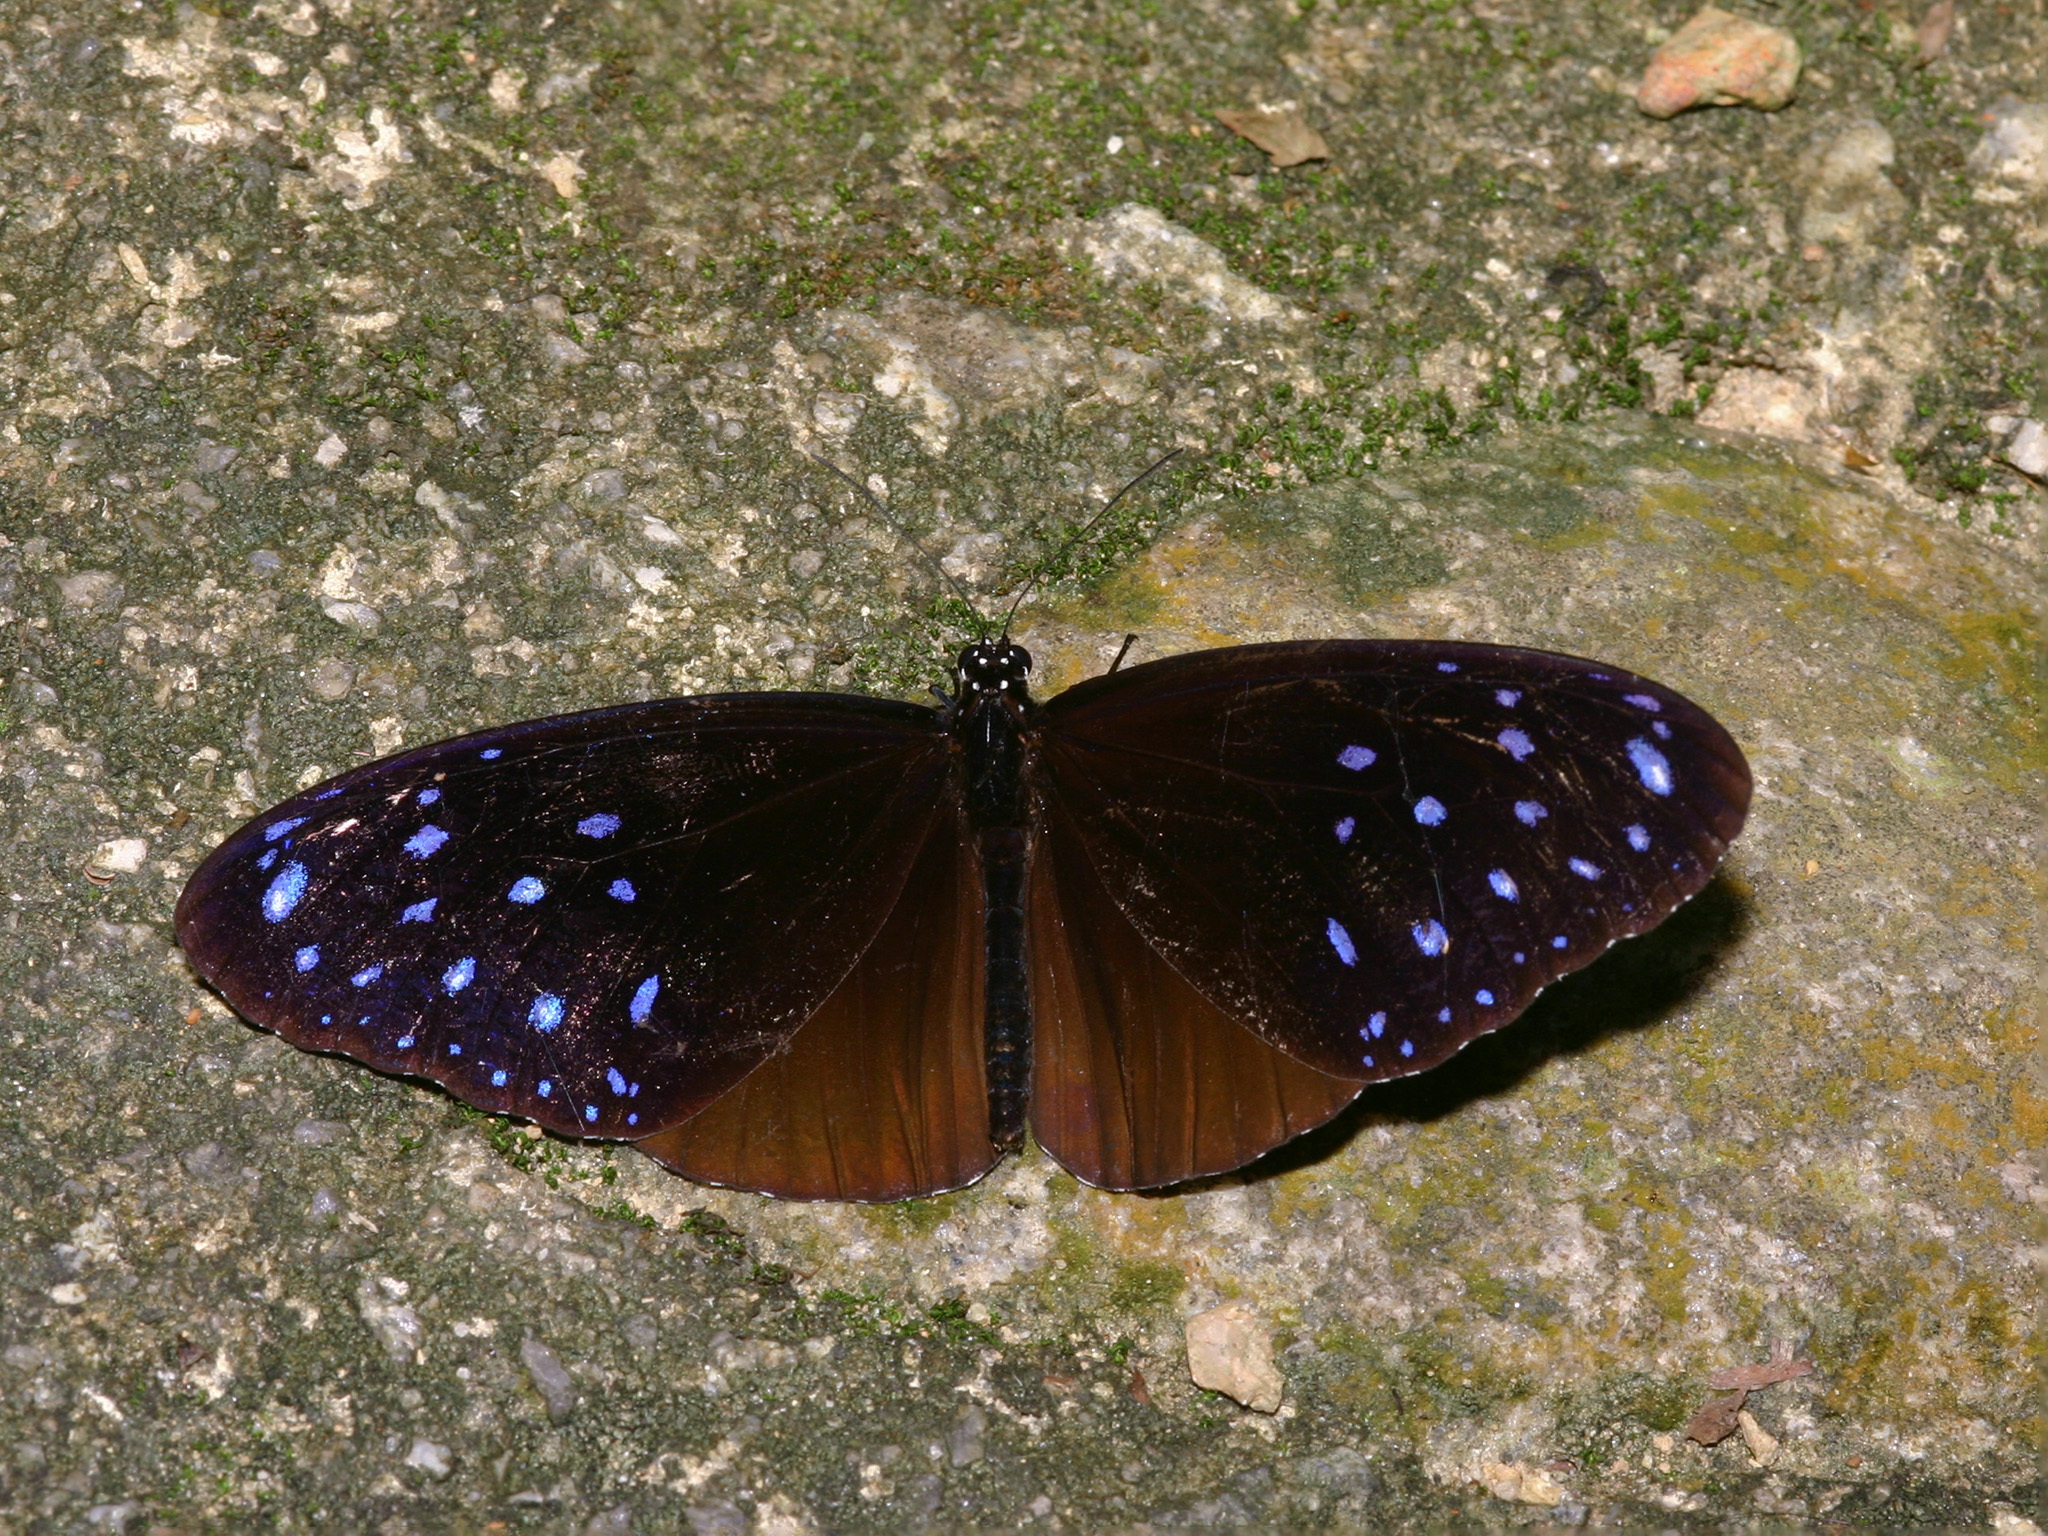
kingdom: Animalia
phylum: Arthropoda
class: Insecta
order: Lepidoptera
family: Nymphalidae
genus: Euploea
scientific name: Euploea mulciber
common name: Striped blue crow butterfly
